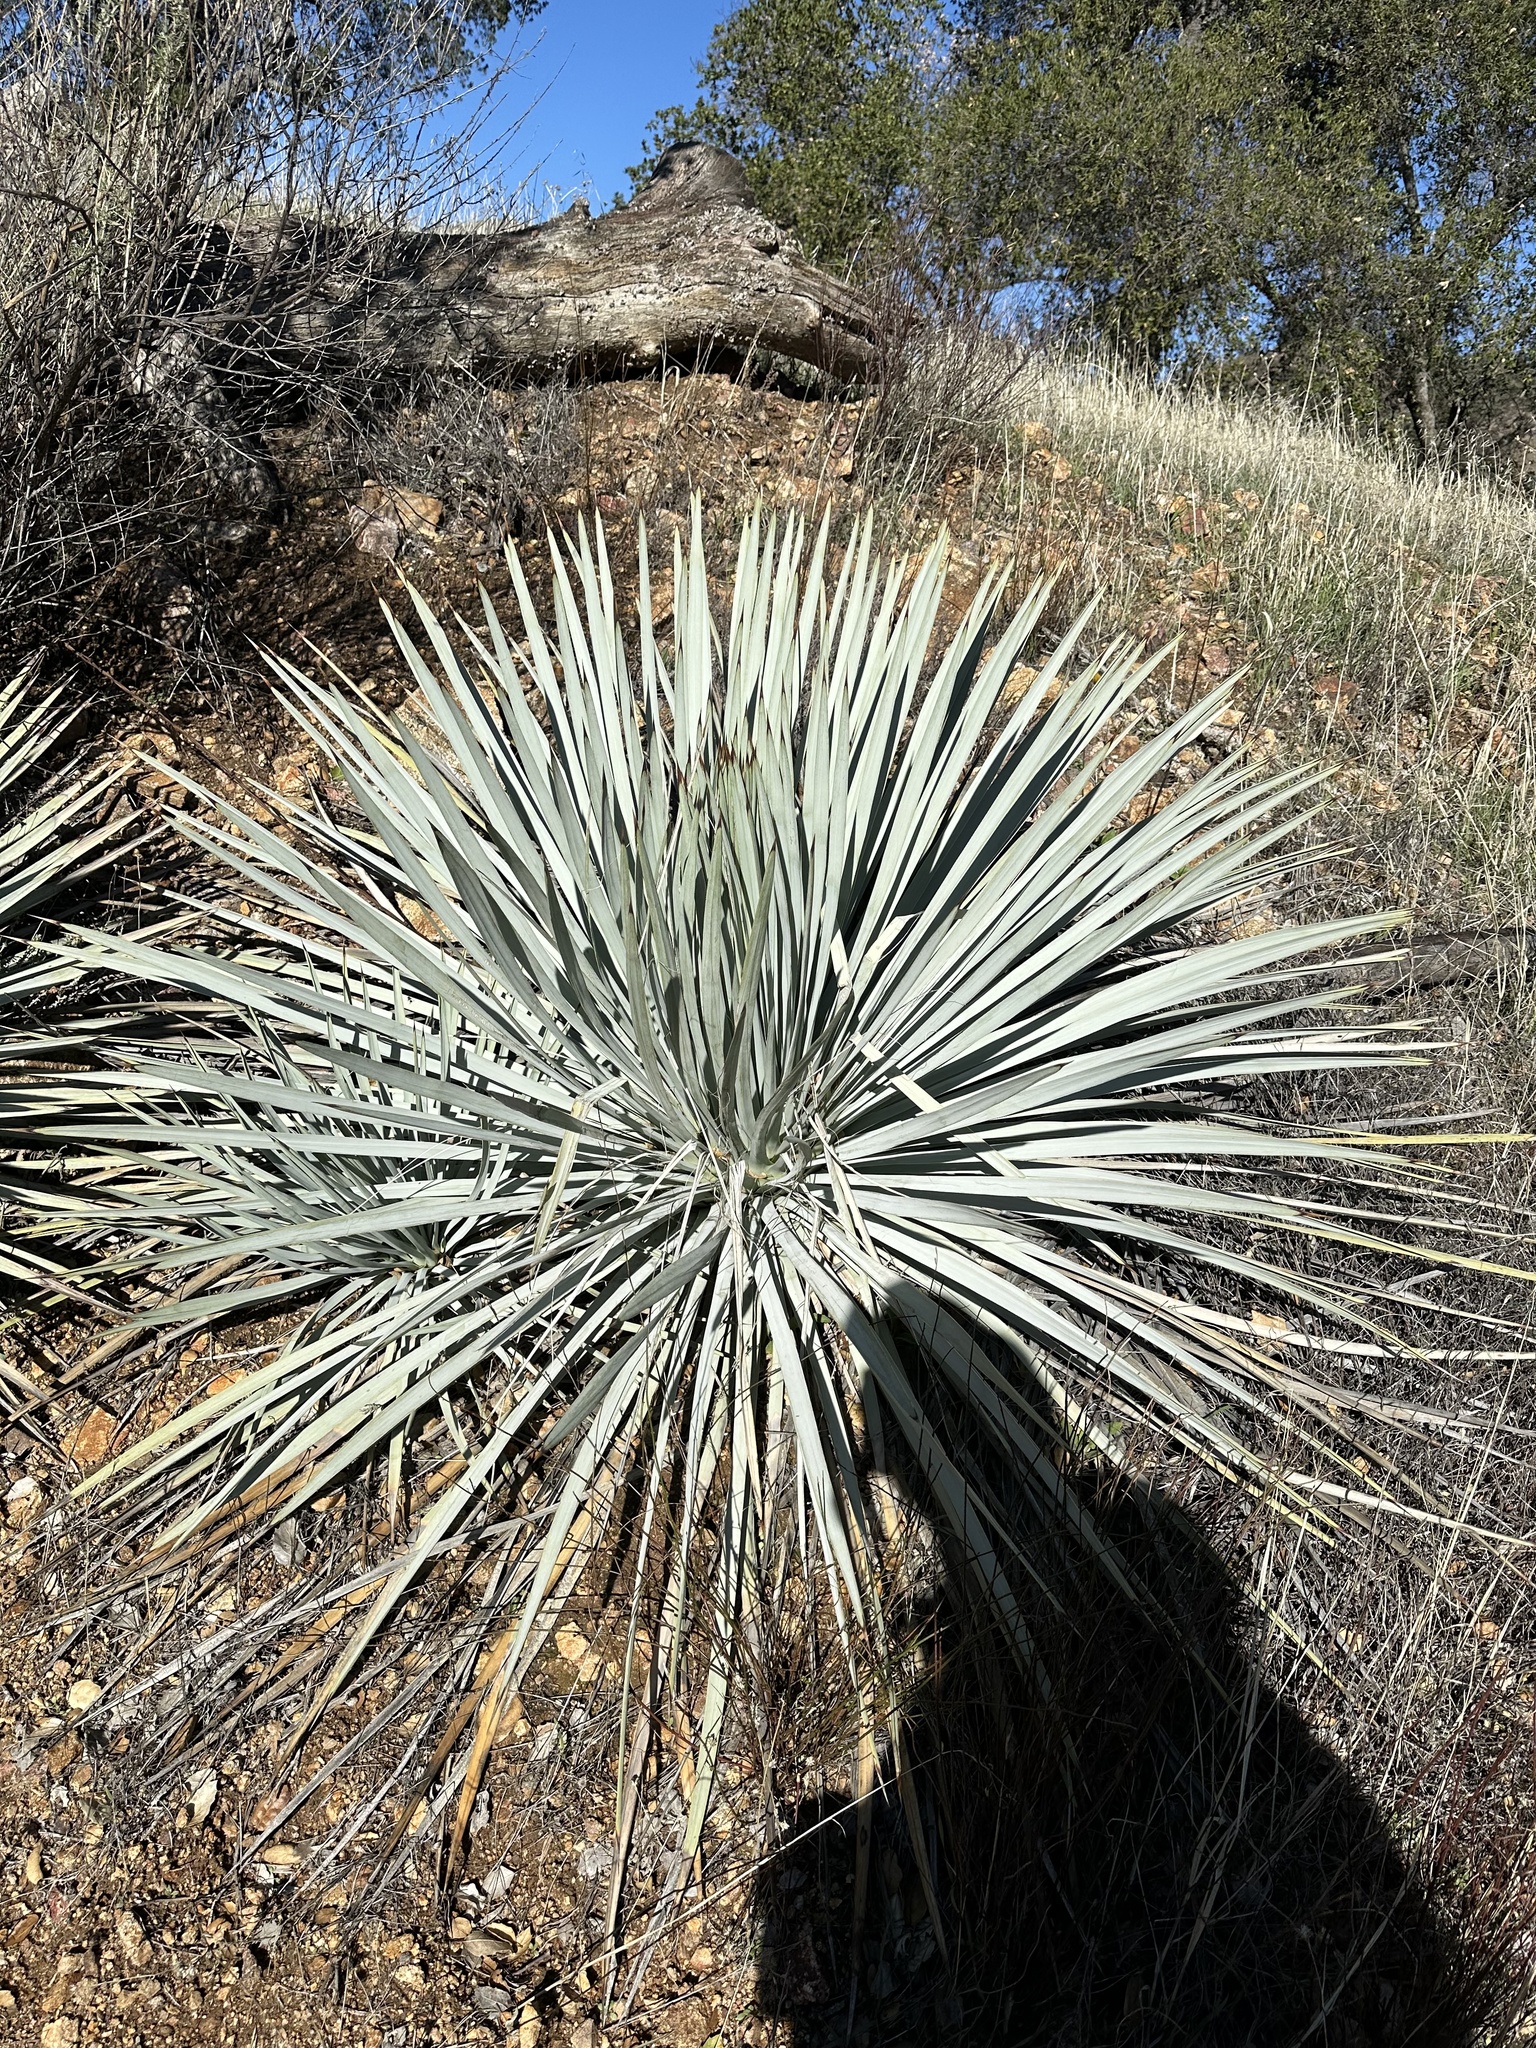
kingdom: Plantae
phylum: Tracheophyta
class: Liliopsida
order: Asparagales
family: Asparagaceae
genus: Hesperoyucca
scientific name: Hesperoyucca whipplei
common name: Our lord's-candle
